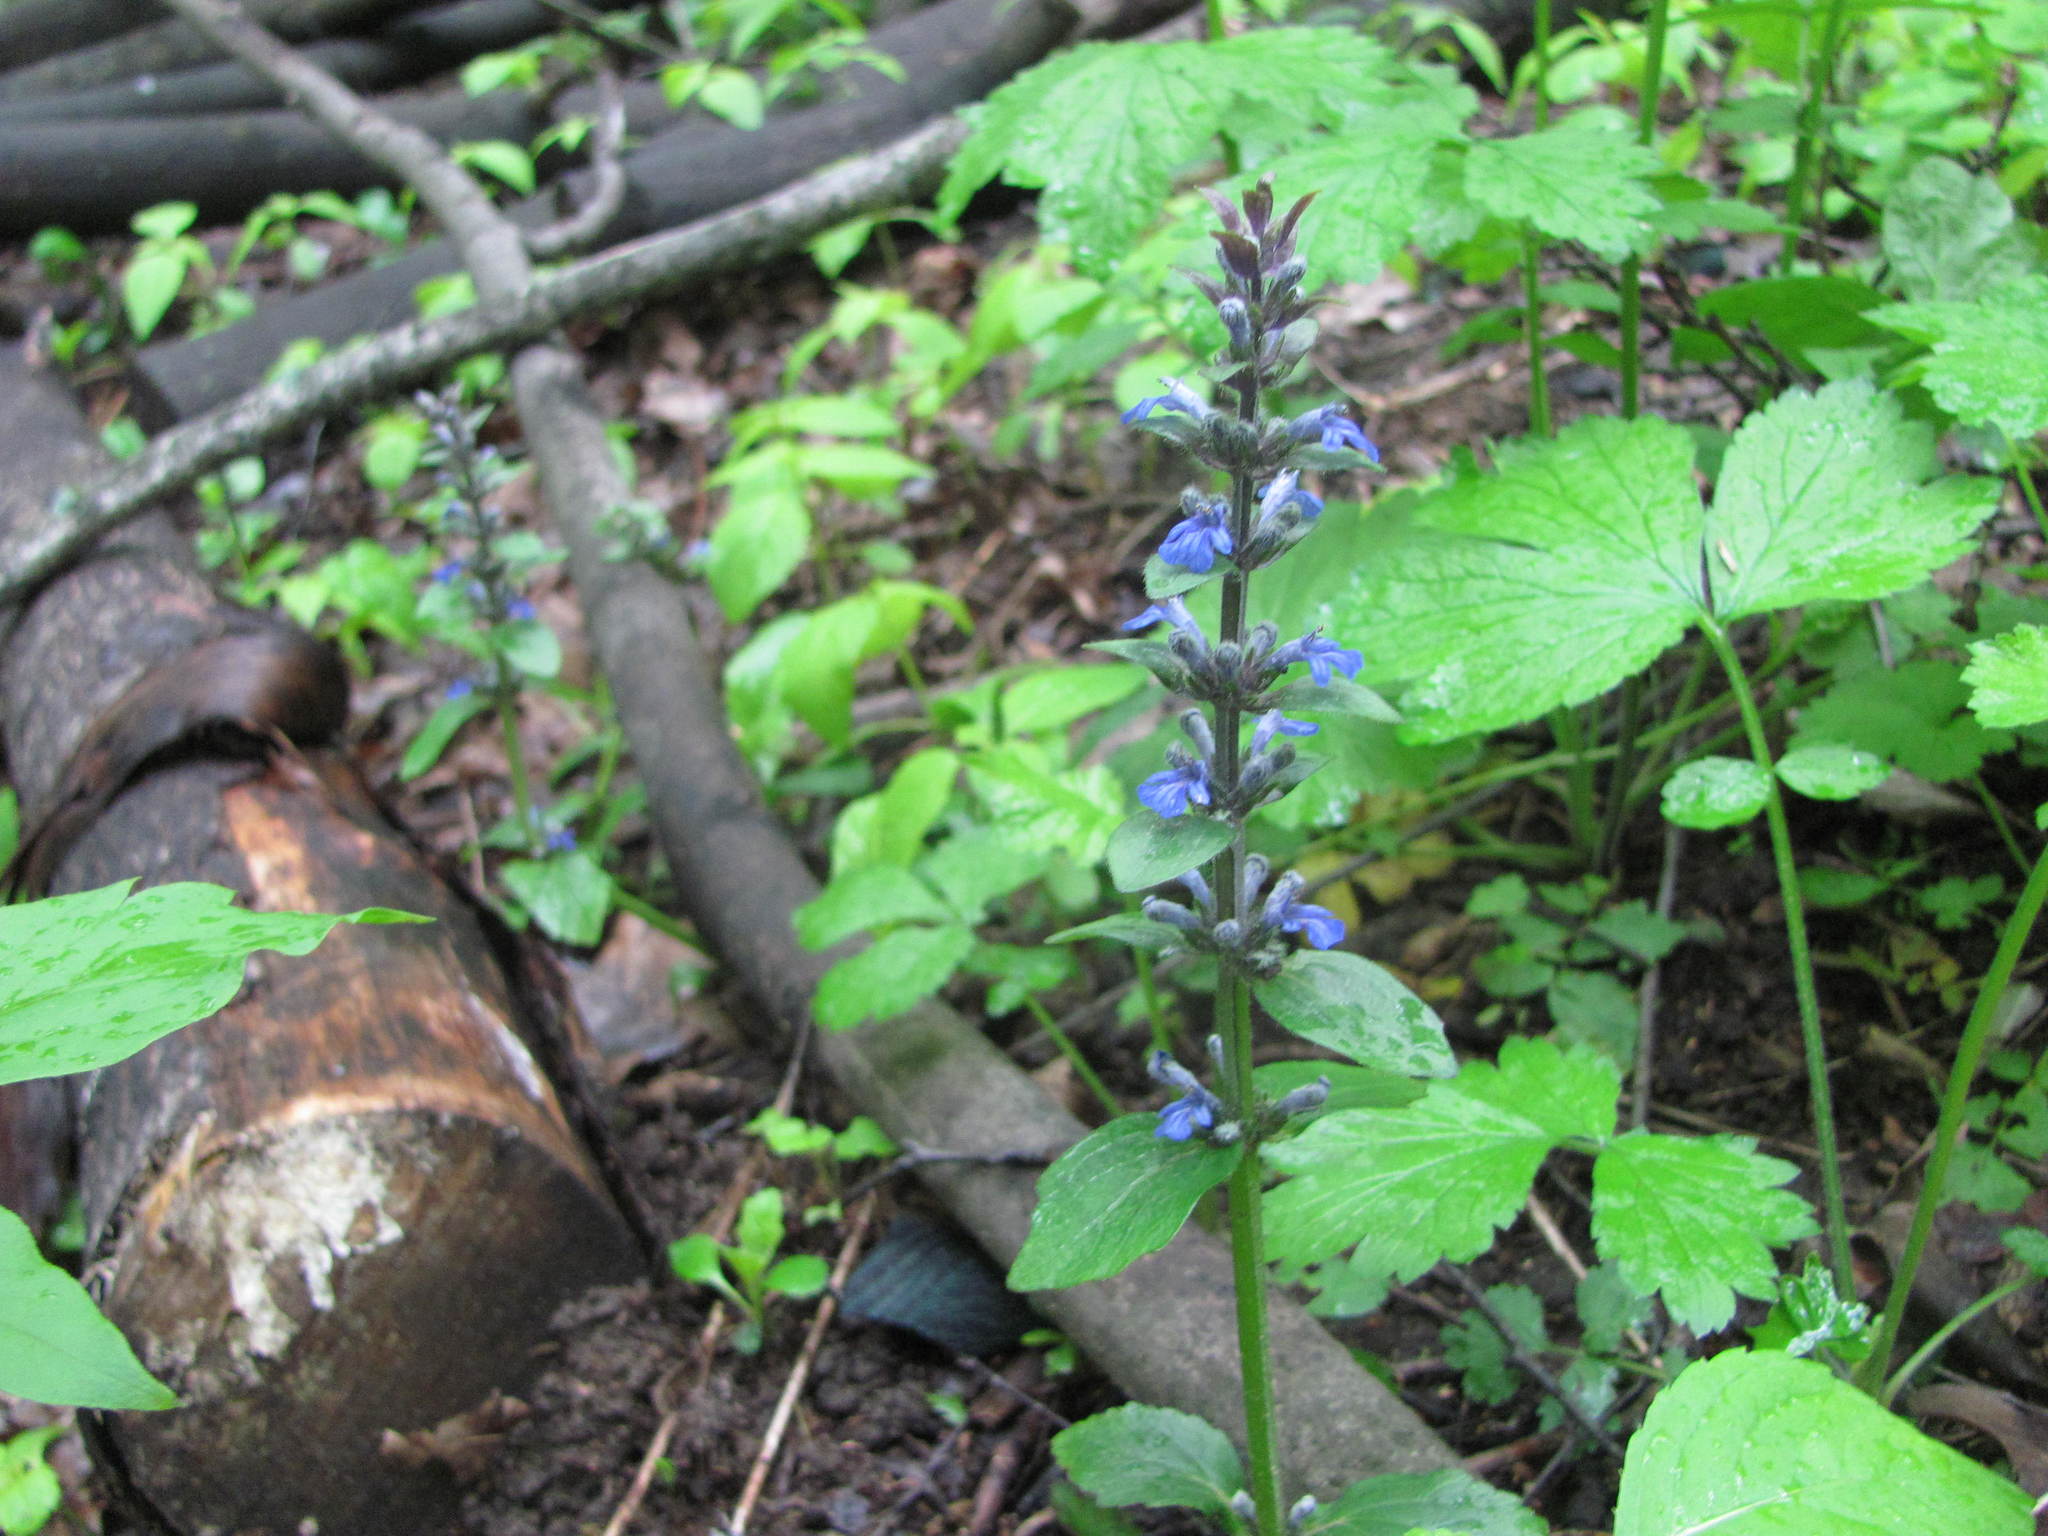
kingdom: Plantae
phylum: Tracheophyta
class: Magnoliopsida
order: Lamiales
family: Lamiaceae
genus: Ajuga
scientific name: Ajuga reptans
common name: Bugle
